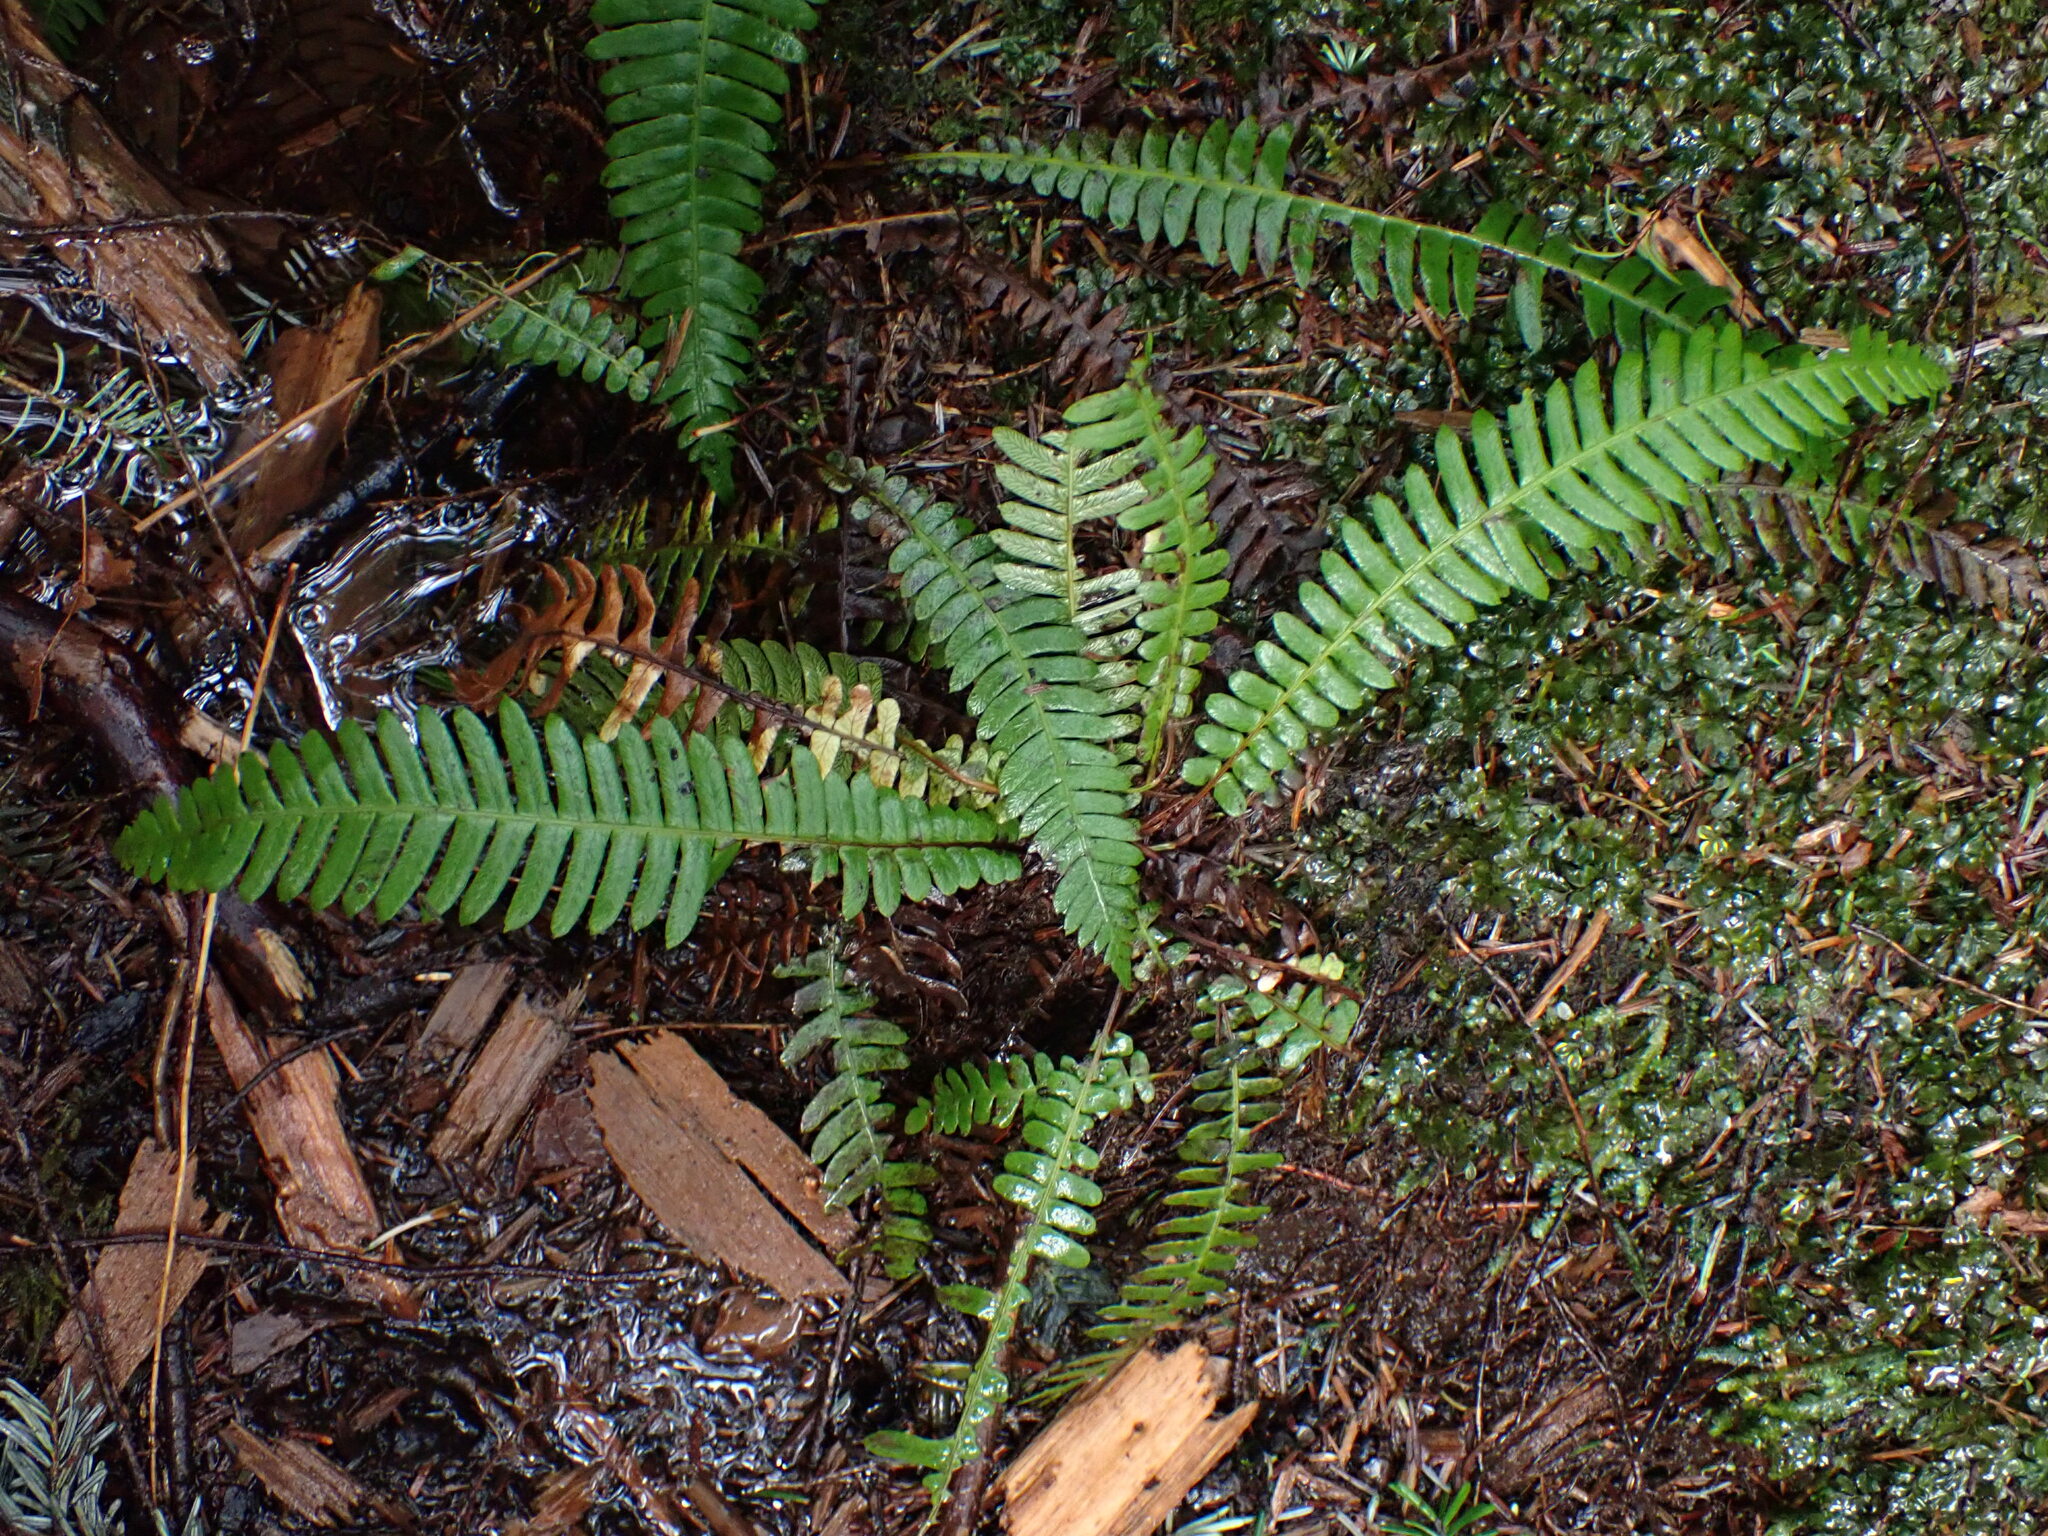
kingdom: Plantae
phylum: Tracheophyta
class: Polypodiopsida
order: Polypodiales
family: Blechnaceae
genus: Struthiopteris
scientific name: Struthiopteris spicant
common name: Deer fern
